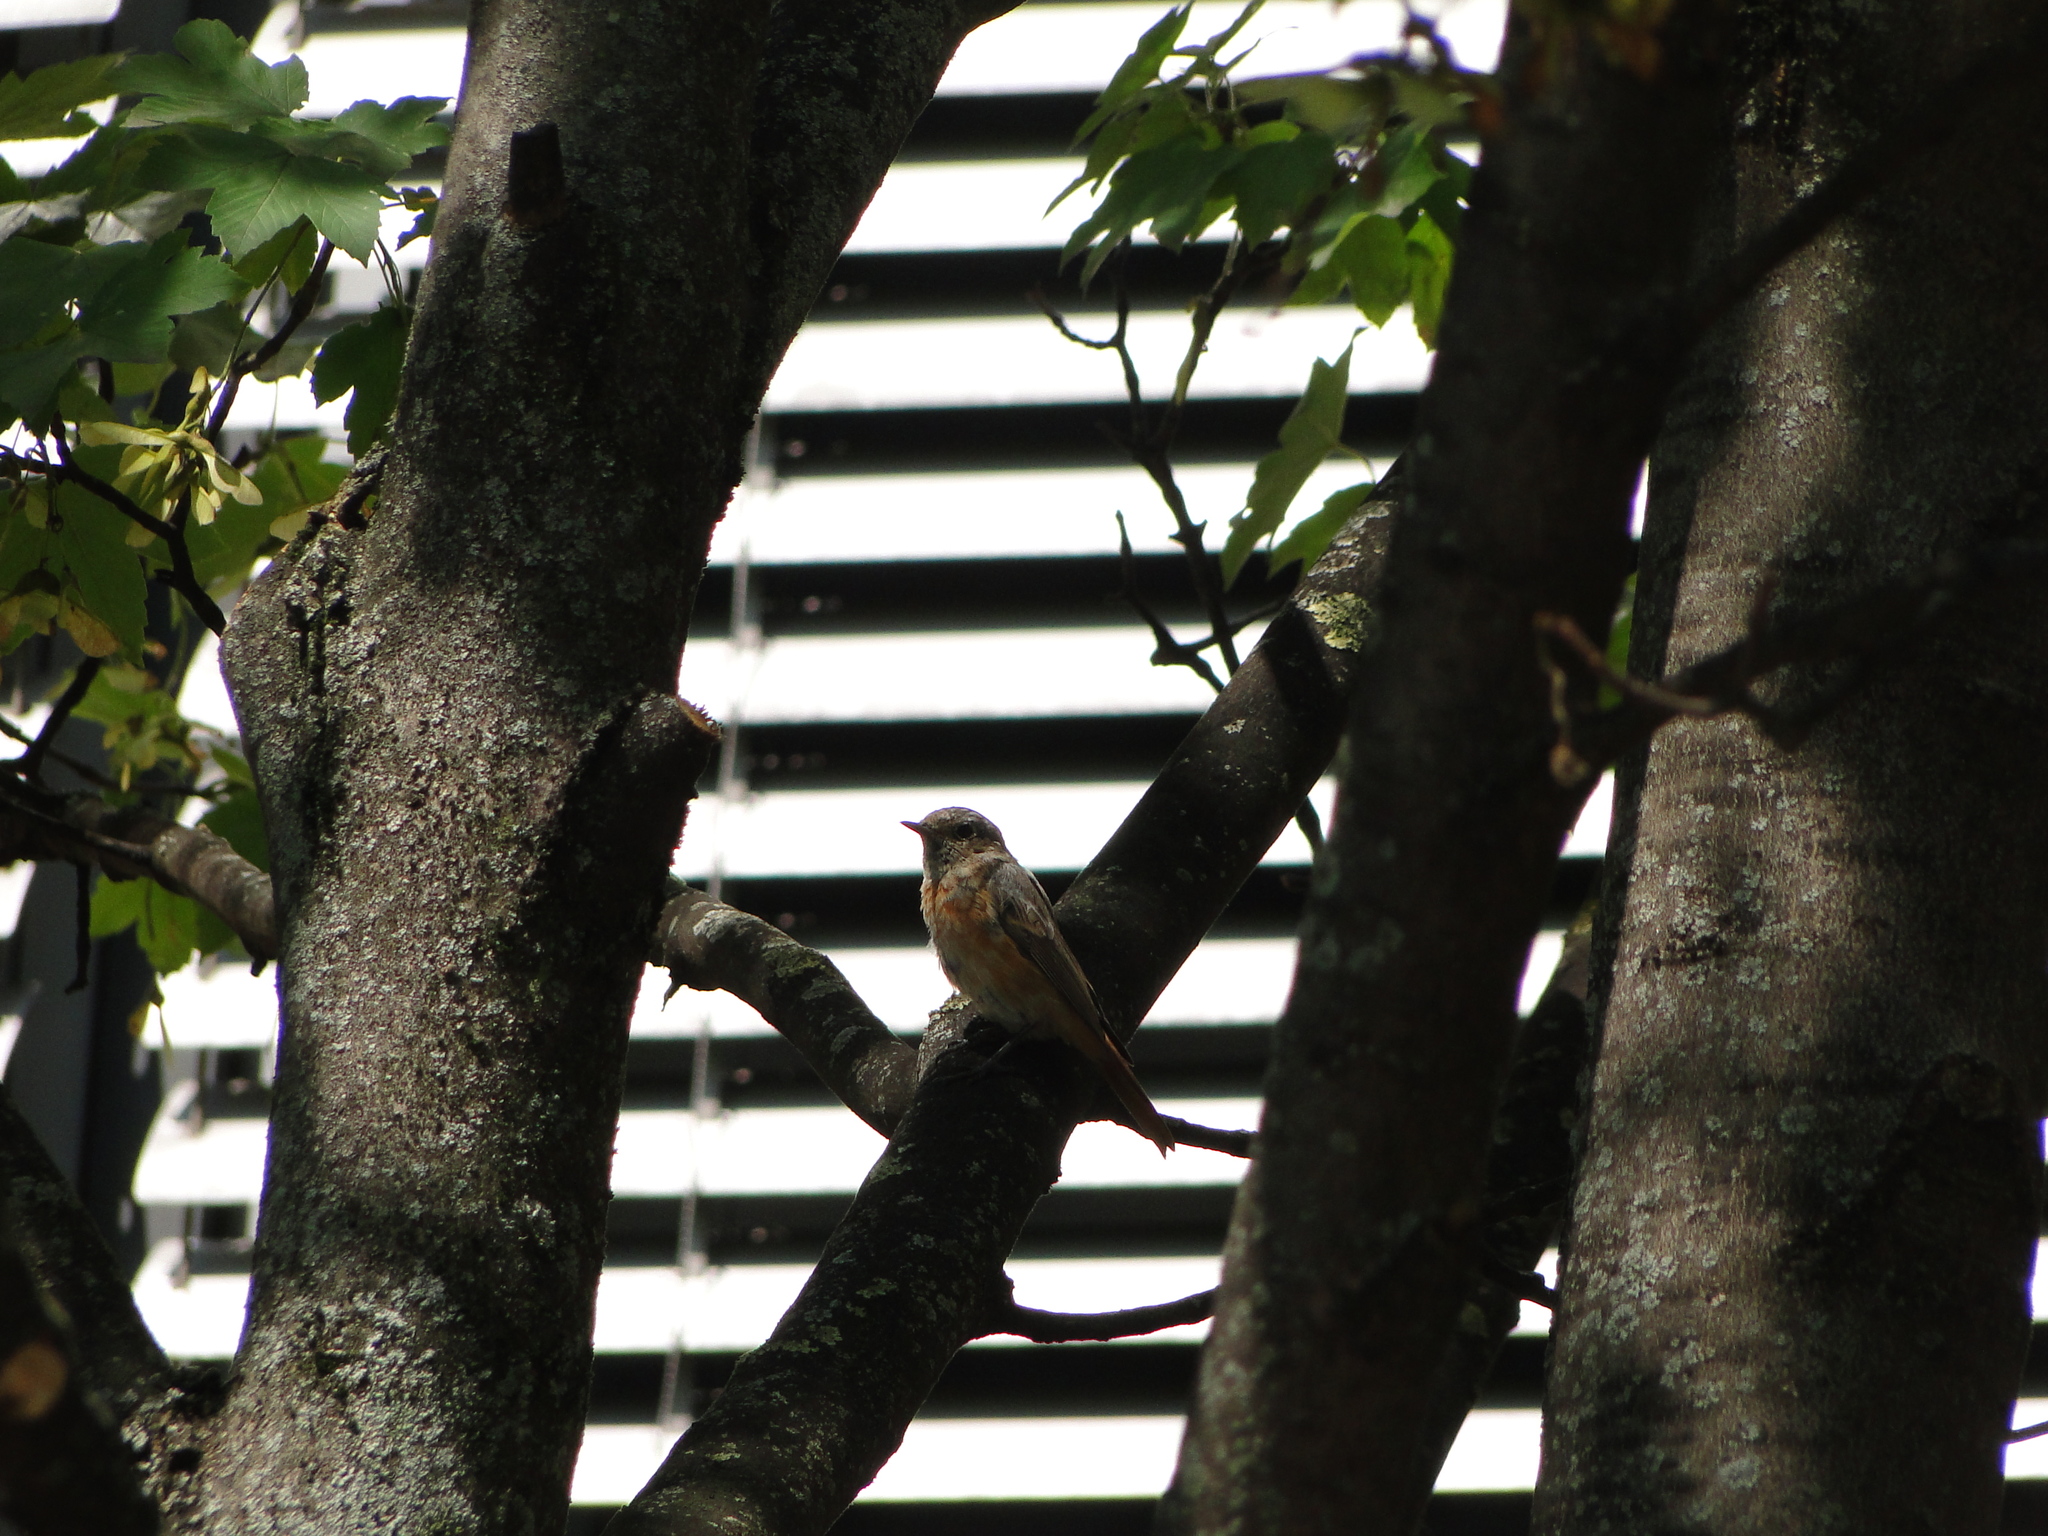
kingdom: Animalia
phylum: Chordata
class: Aves
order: Passeriformes
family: Muscicapidae
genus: Phoenicurus
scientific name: Phoenicurus phoenicurus
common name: Common redstart
